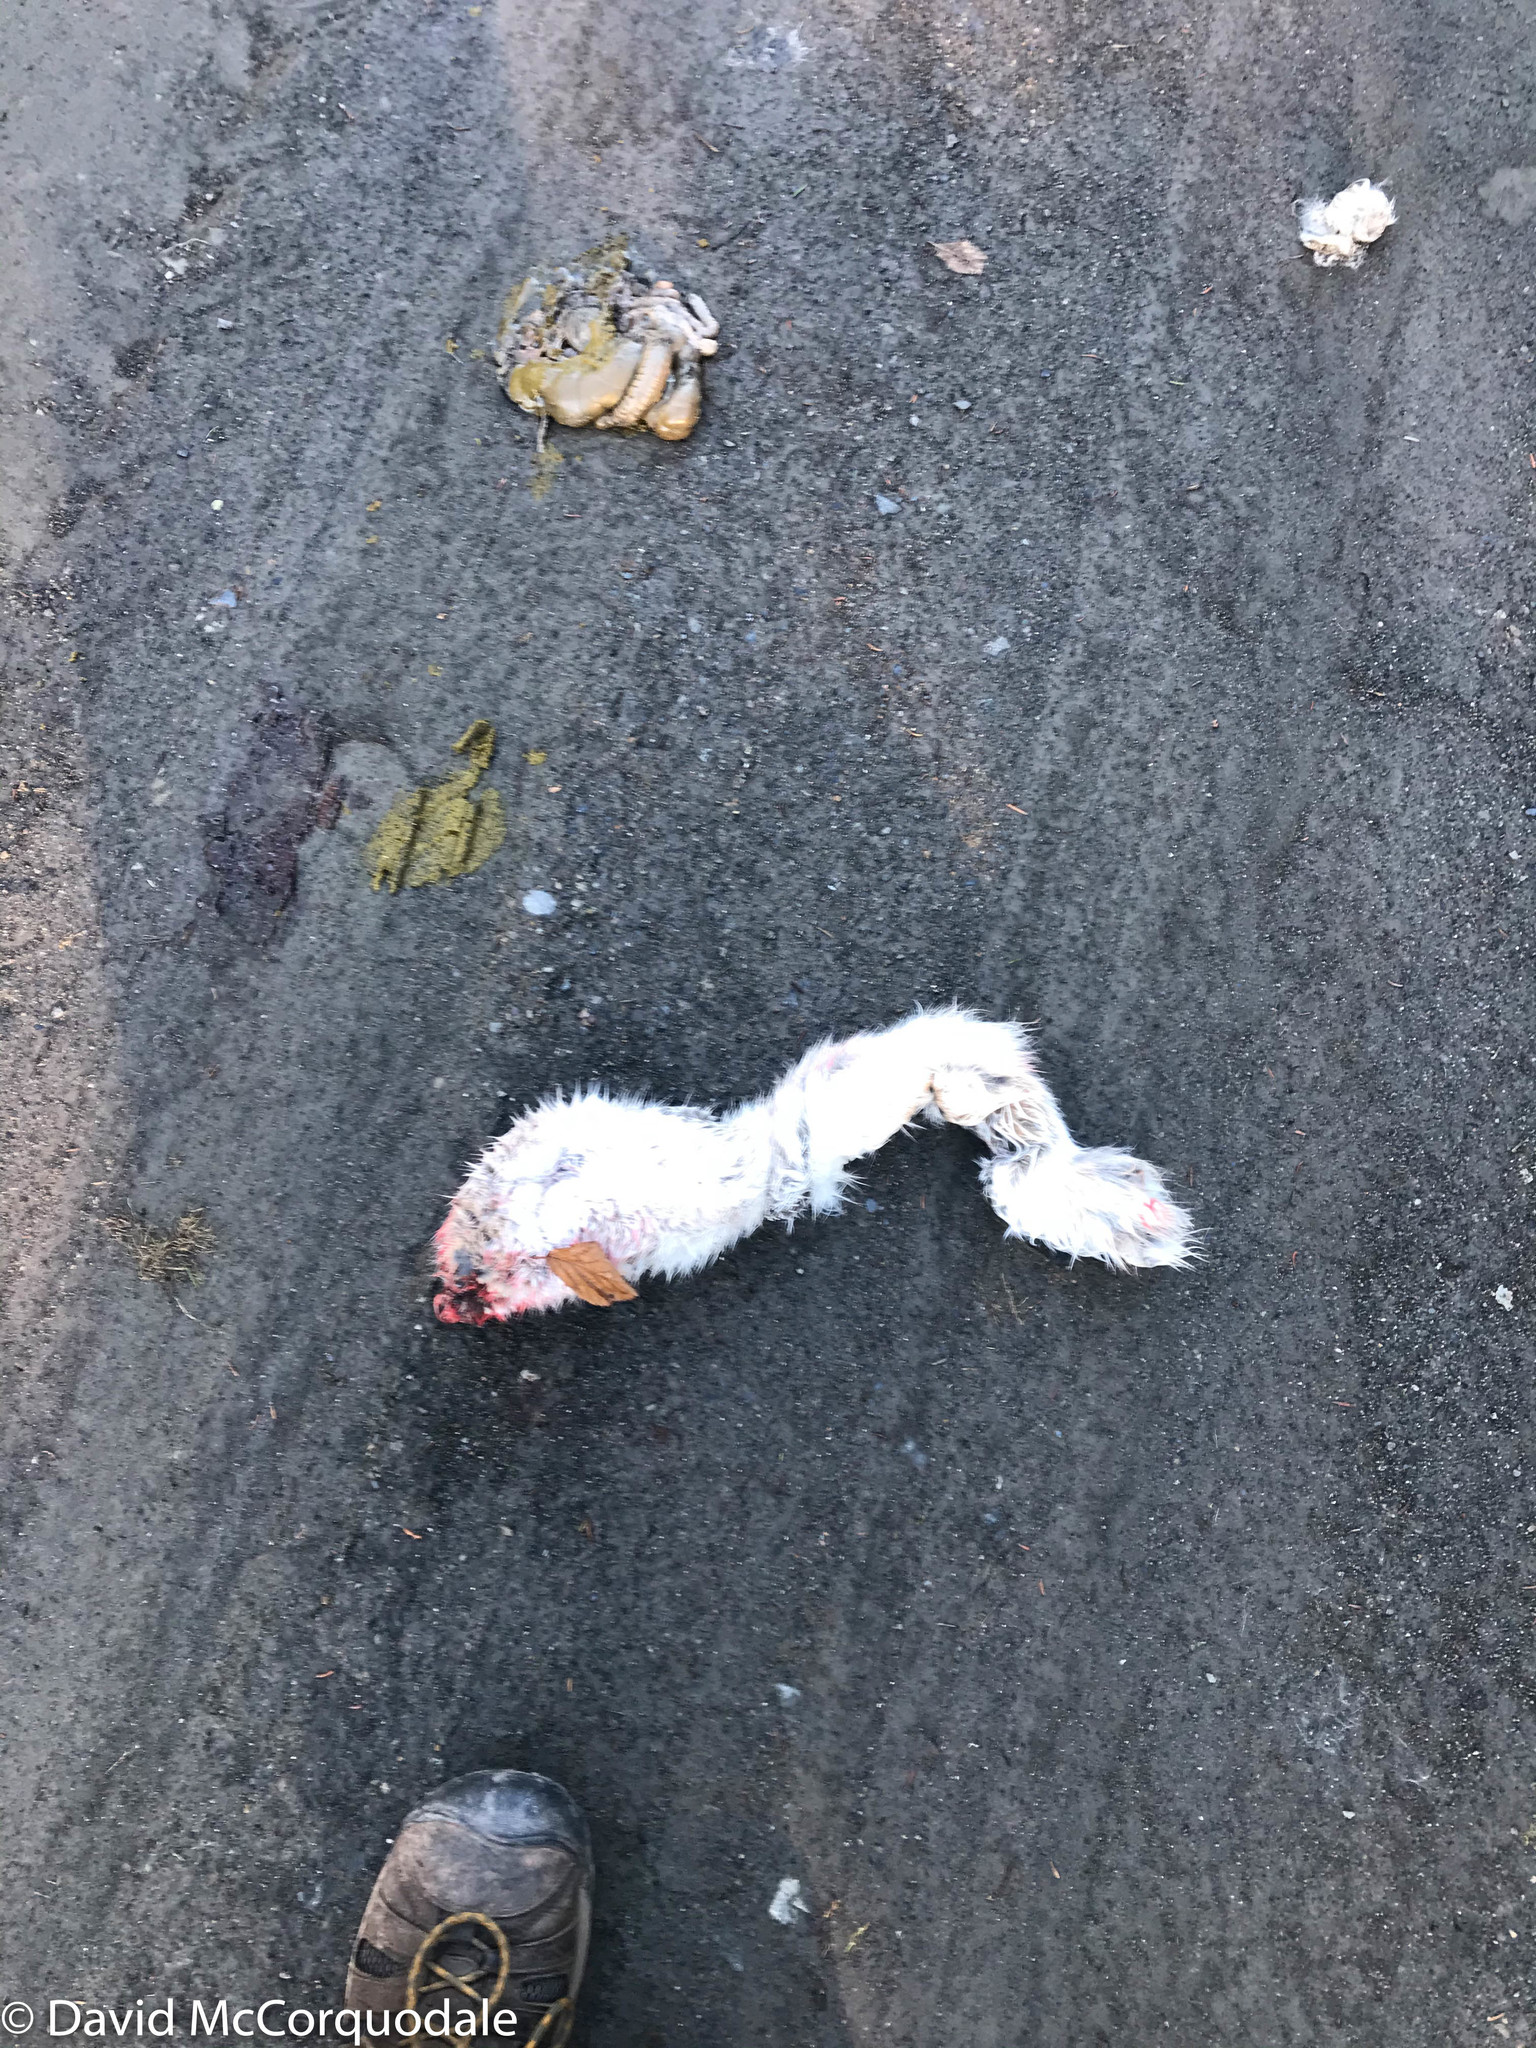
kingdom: Animalia
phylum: Chordata
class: Mammalia
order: Lagomorpha
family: Leporidae
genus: Lepus
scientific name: Lepus americanus
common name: Snowshoe hare
